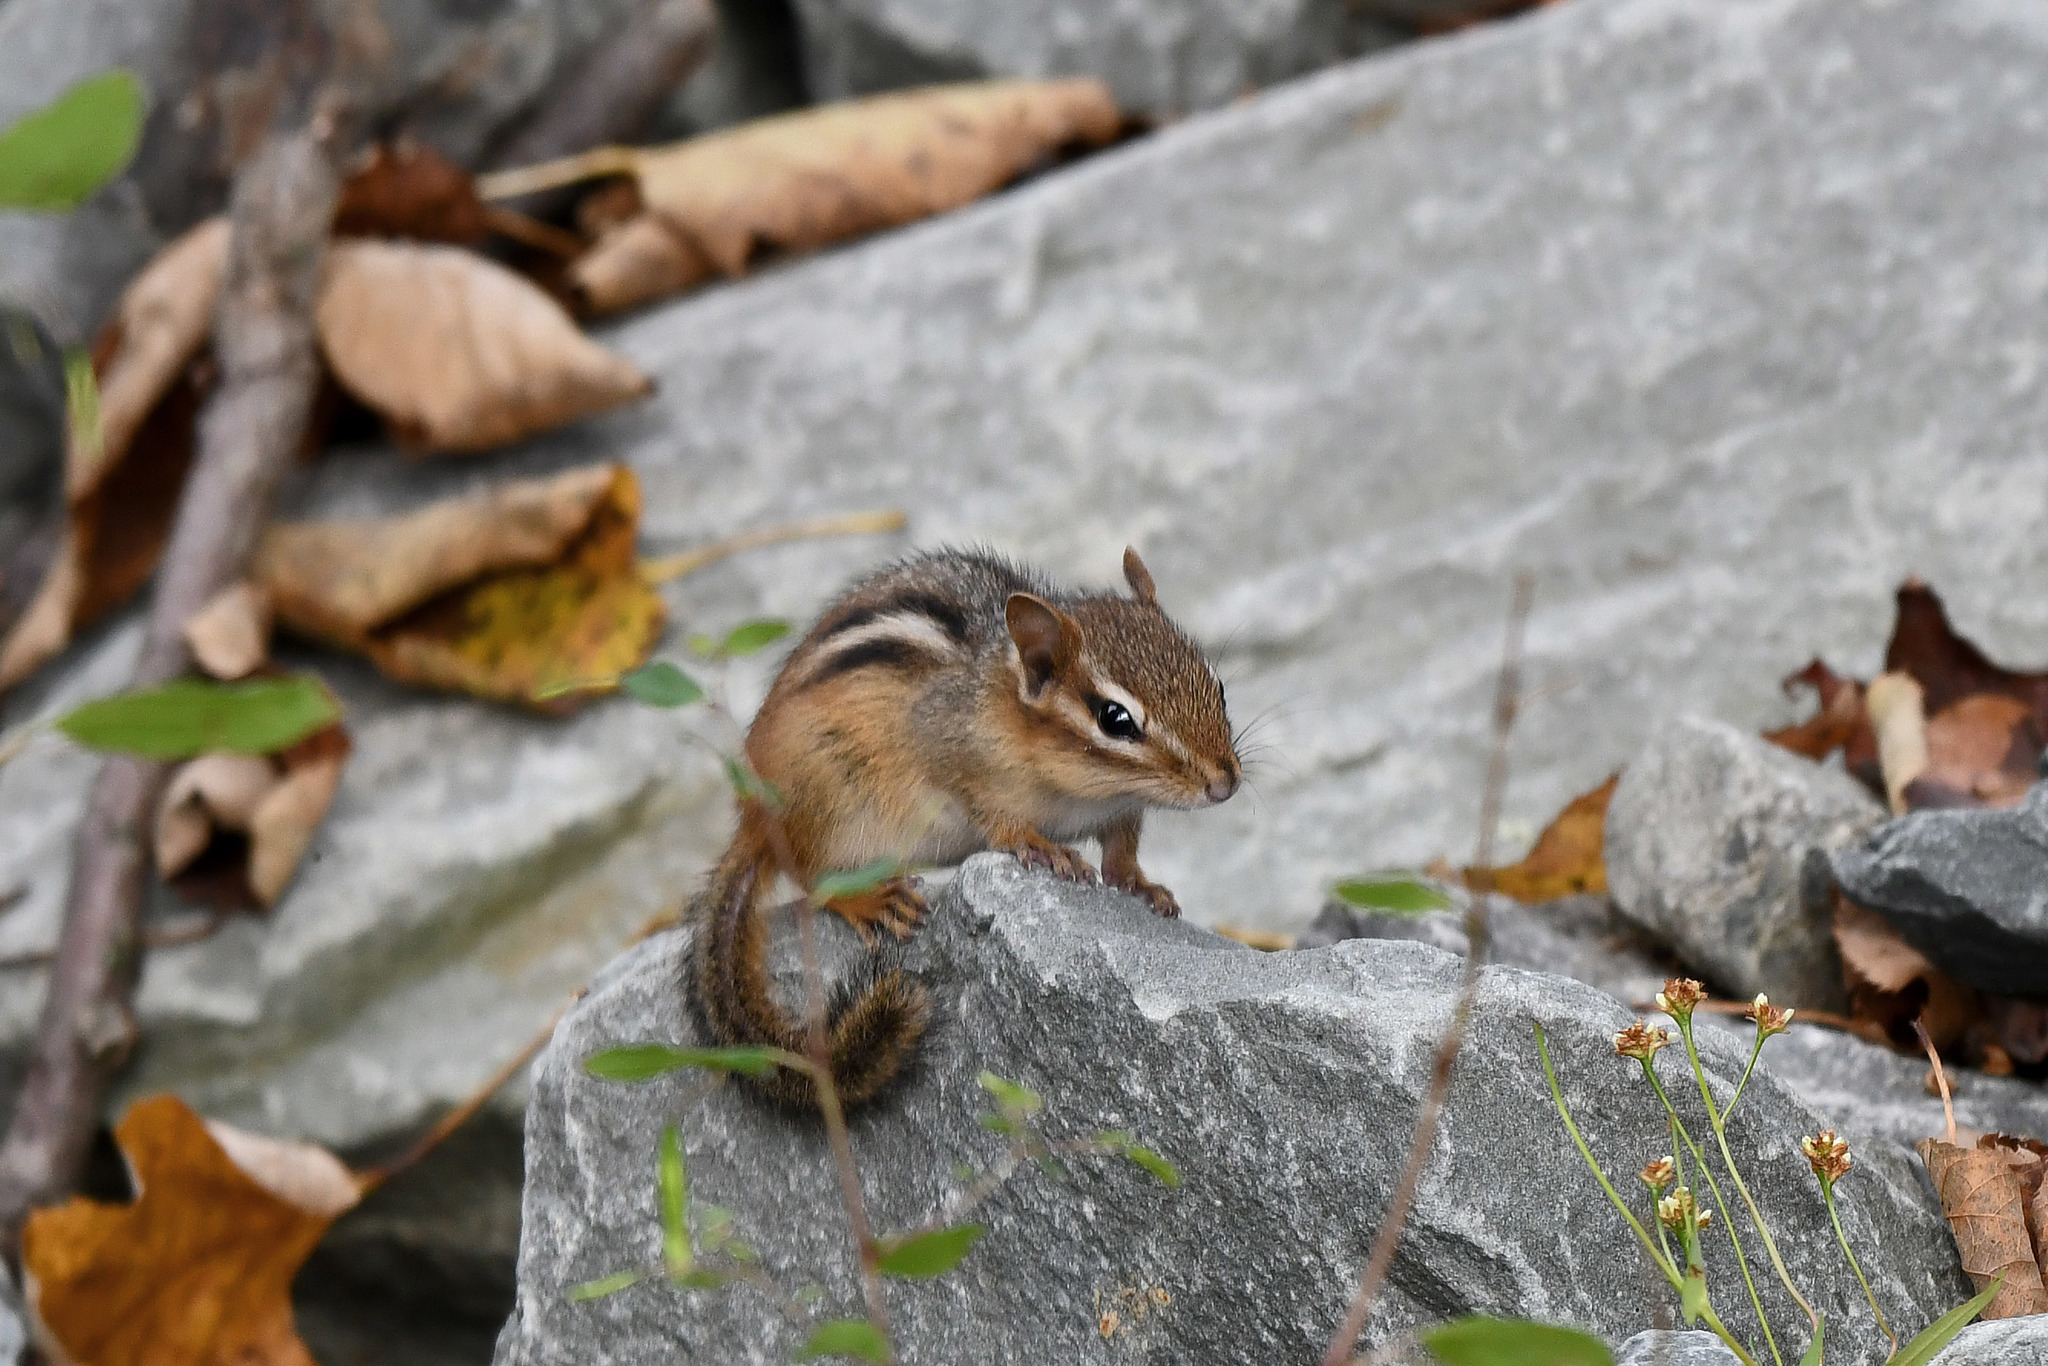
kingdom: Animalia
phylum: Chordata
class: Mammalia
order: Rodentia
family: Sciuridae
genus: Tamias
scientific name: Tamias striatus
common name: Eastern chipmunk
